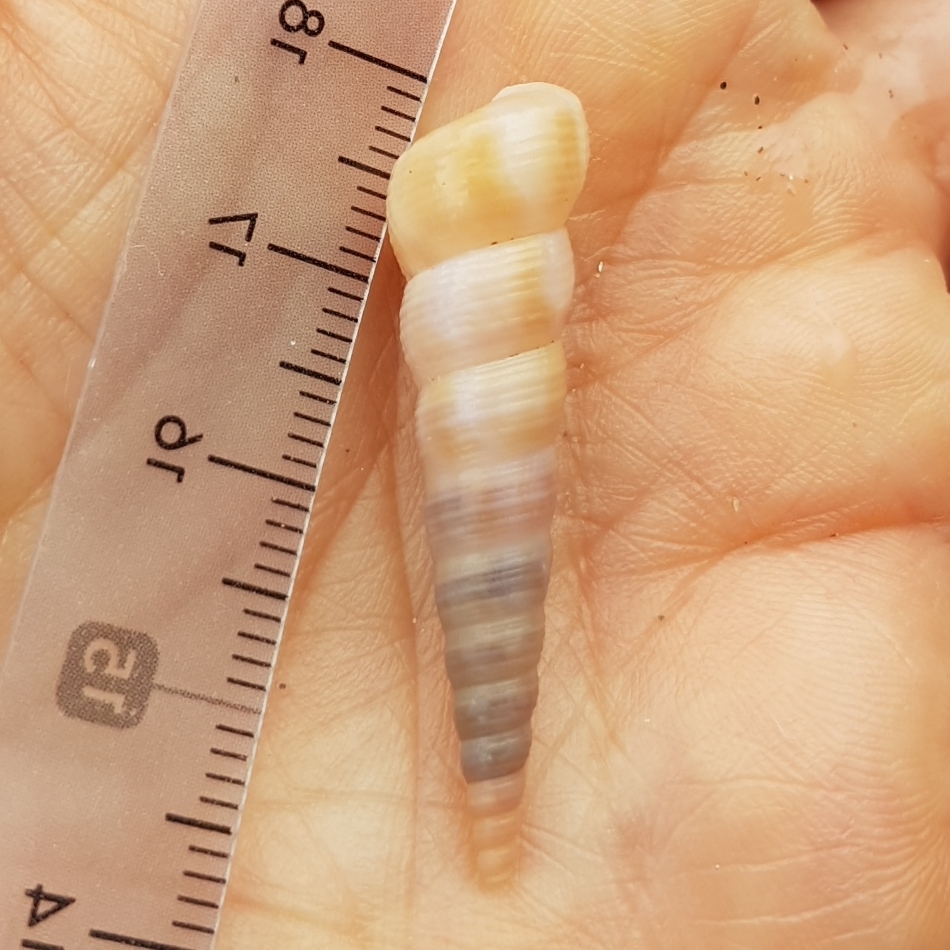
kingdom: Animalia
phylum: Mollusca
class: Gastropoda
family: Turritellidae
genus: Turritellinella
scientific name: Turritellinella tricarinata
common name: Auger shell
